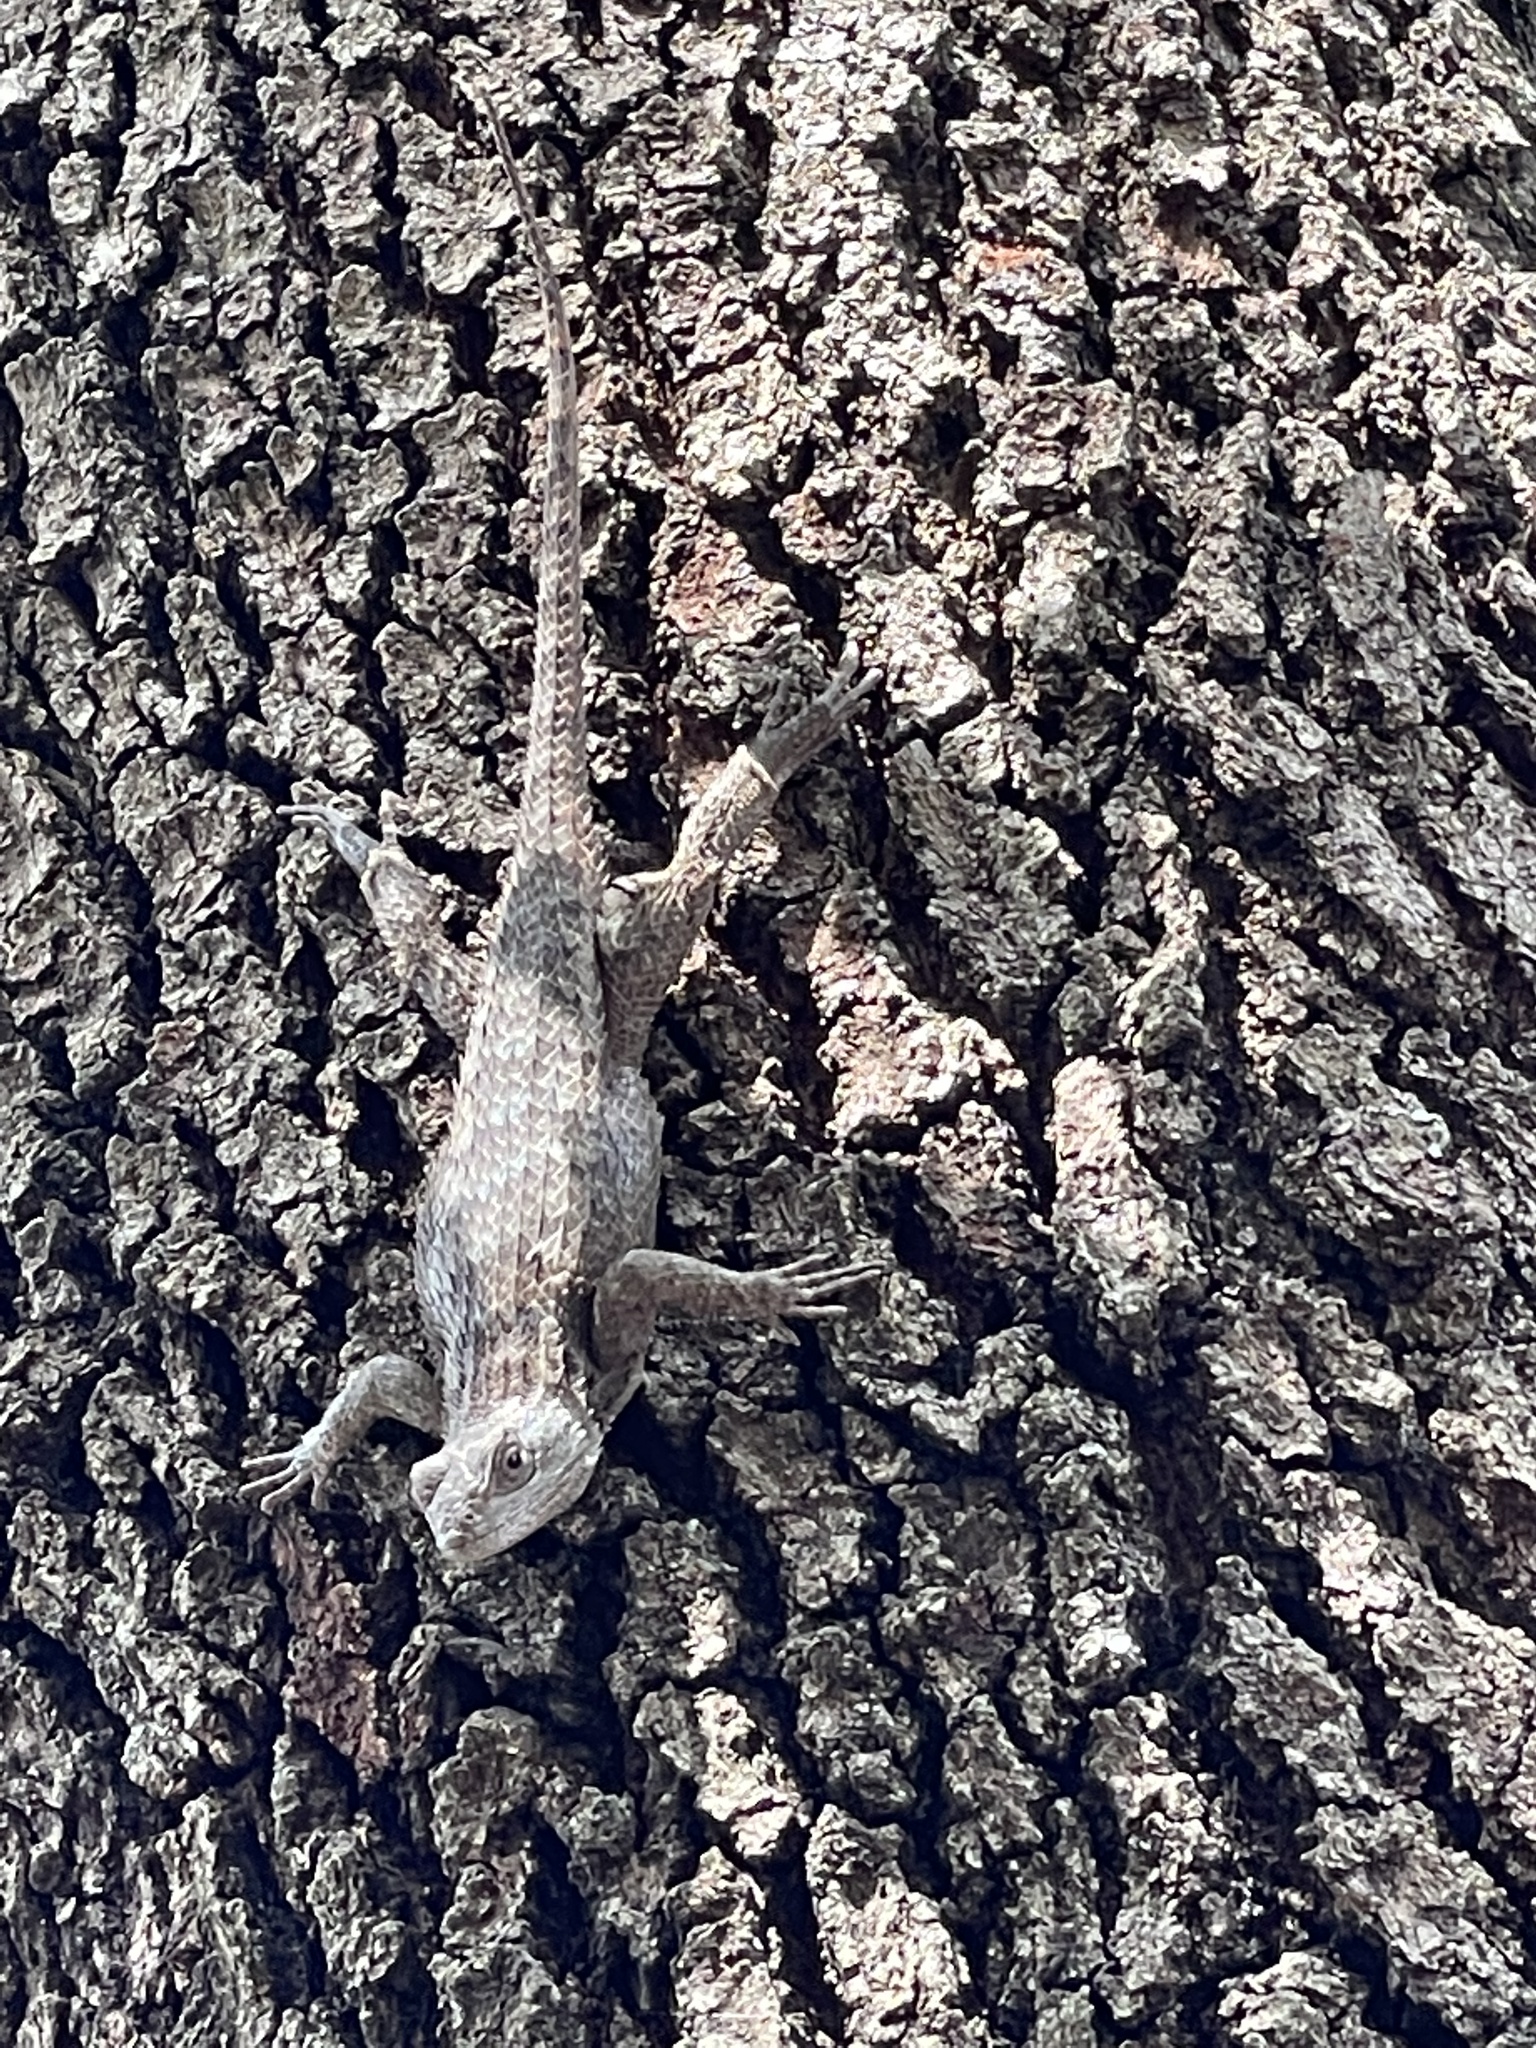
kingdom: Animalia
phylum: Chordata
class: Squamata
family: Phrynosomatidae
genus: Sceloporus
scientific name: Sceloporus olivaceus
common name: Texas spiny lizard
